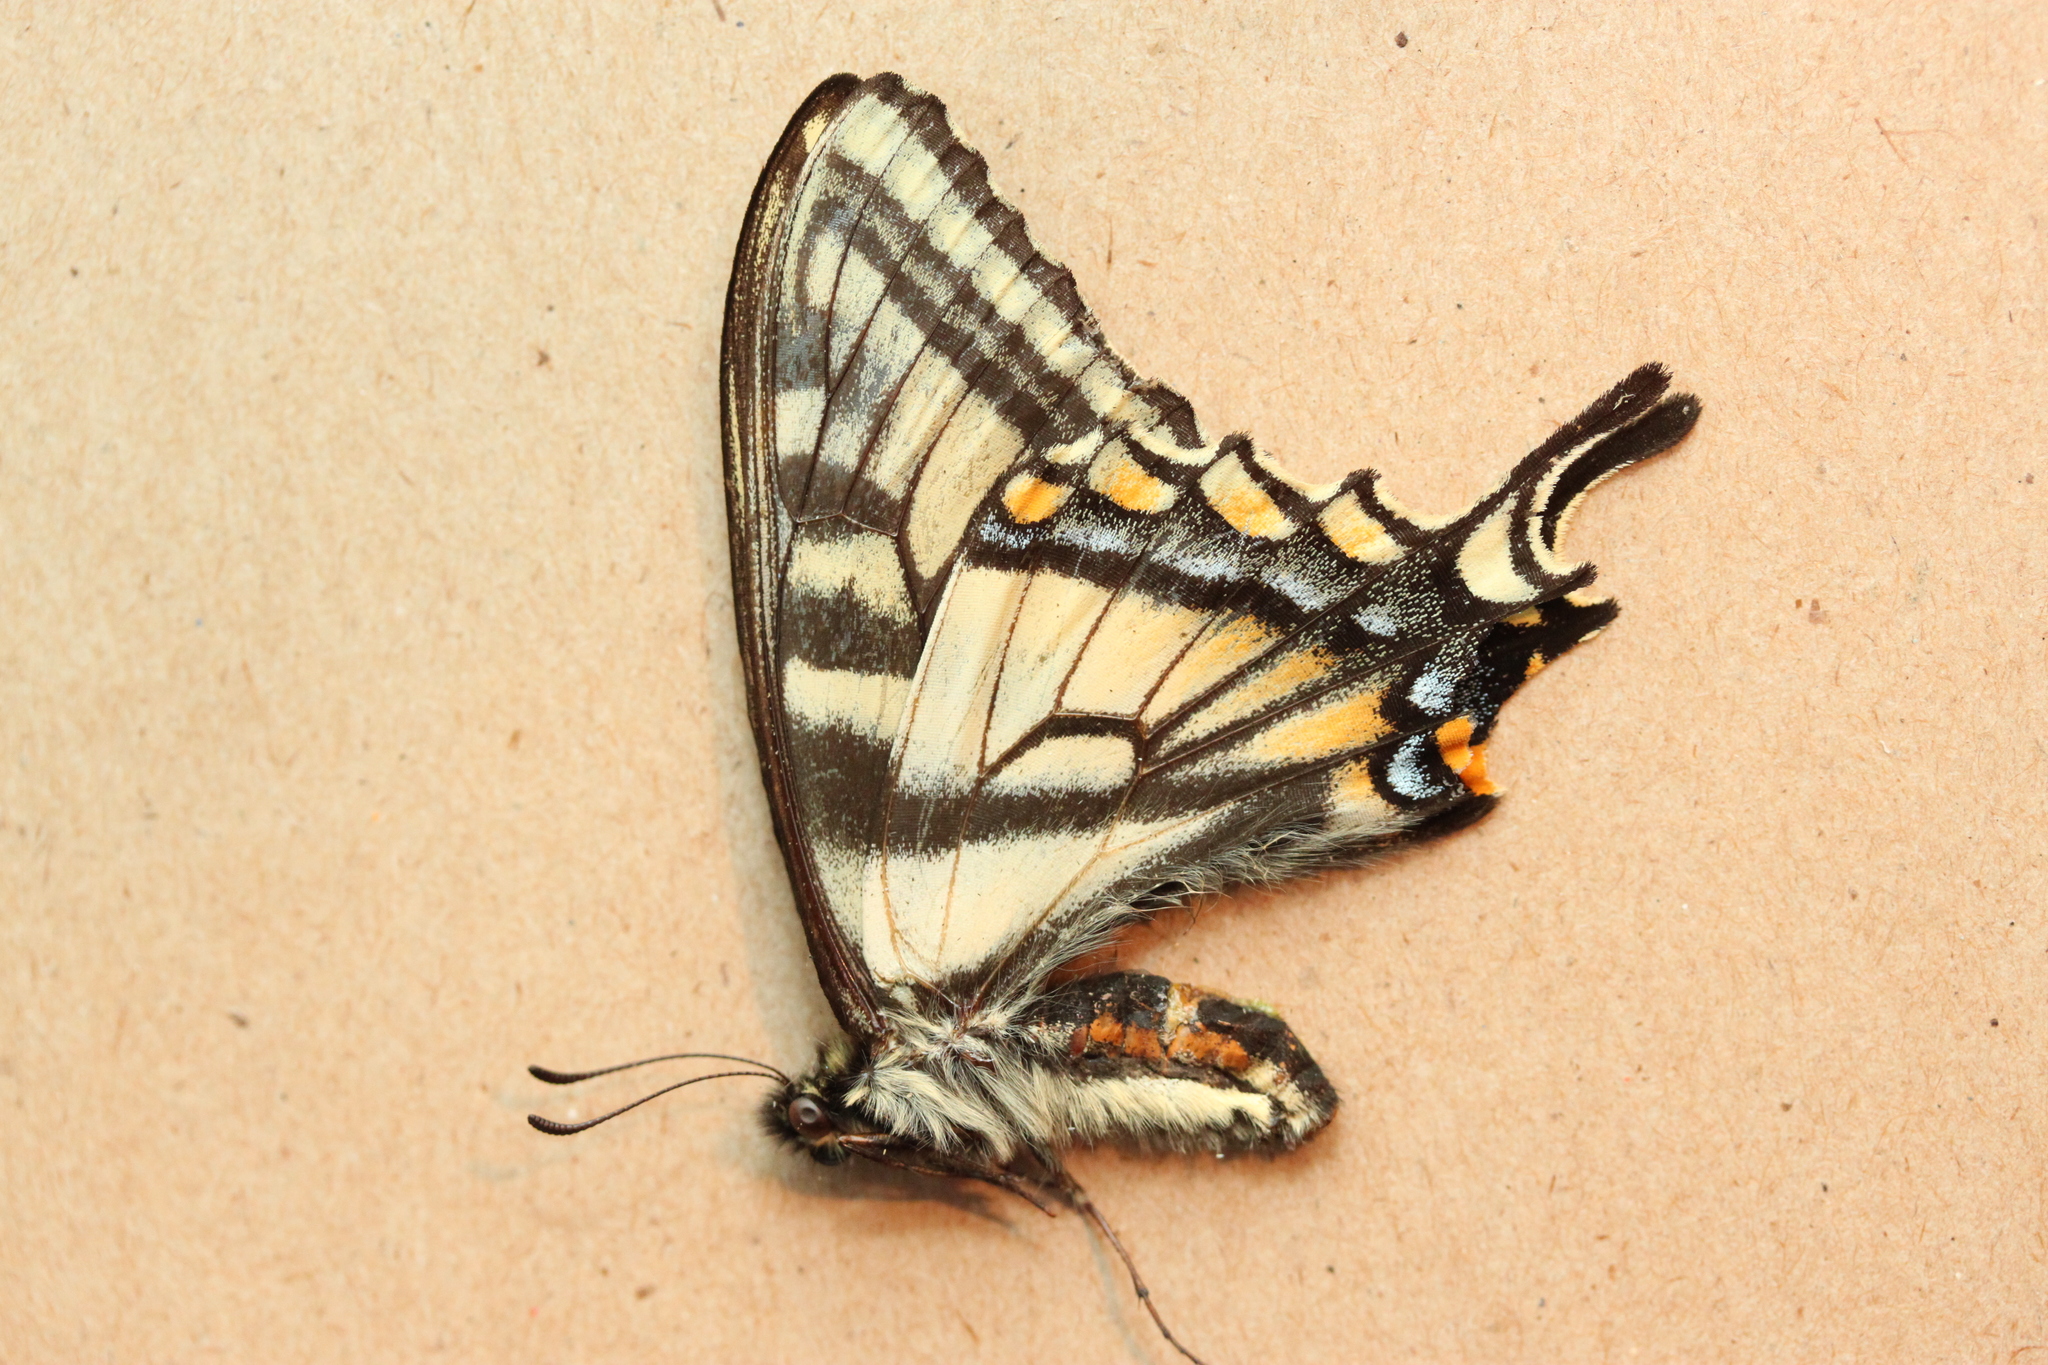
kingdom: Animalia
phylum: Arthropoda
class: Insecta
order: Lepidoptera
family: Papilionidae
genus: Papilio
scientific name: Papilio canadensis
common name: Canadian tiger swallowtail
